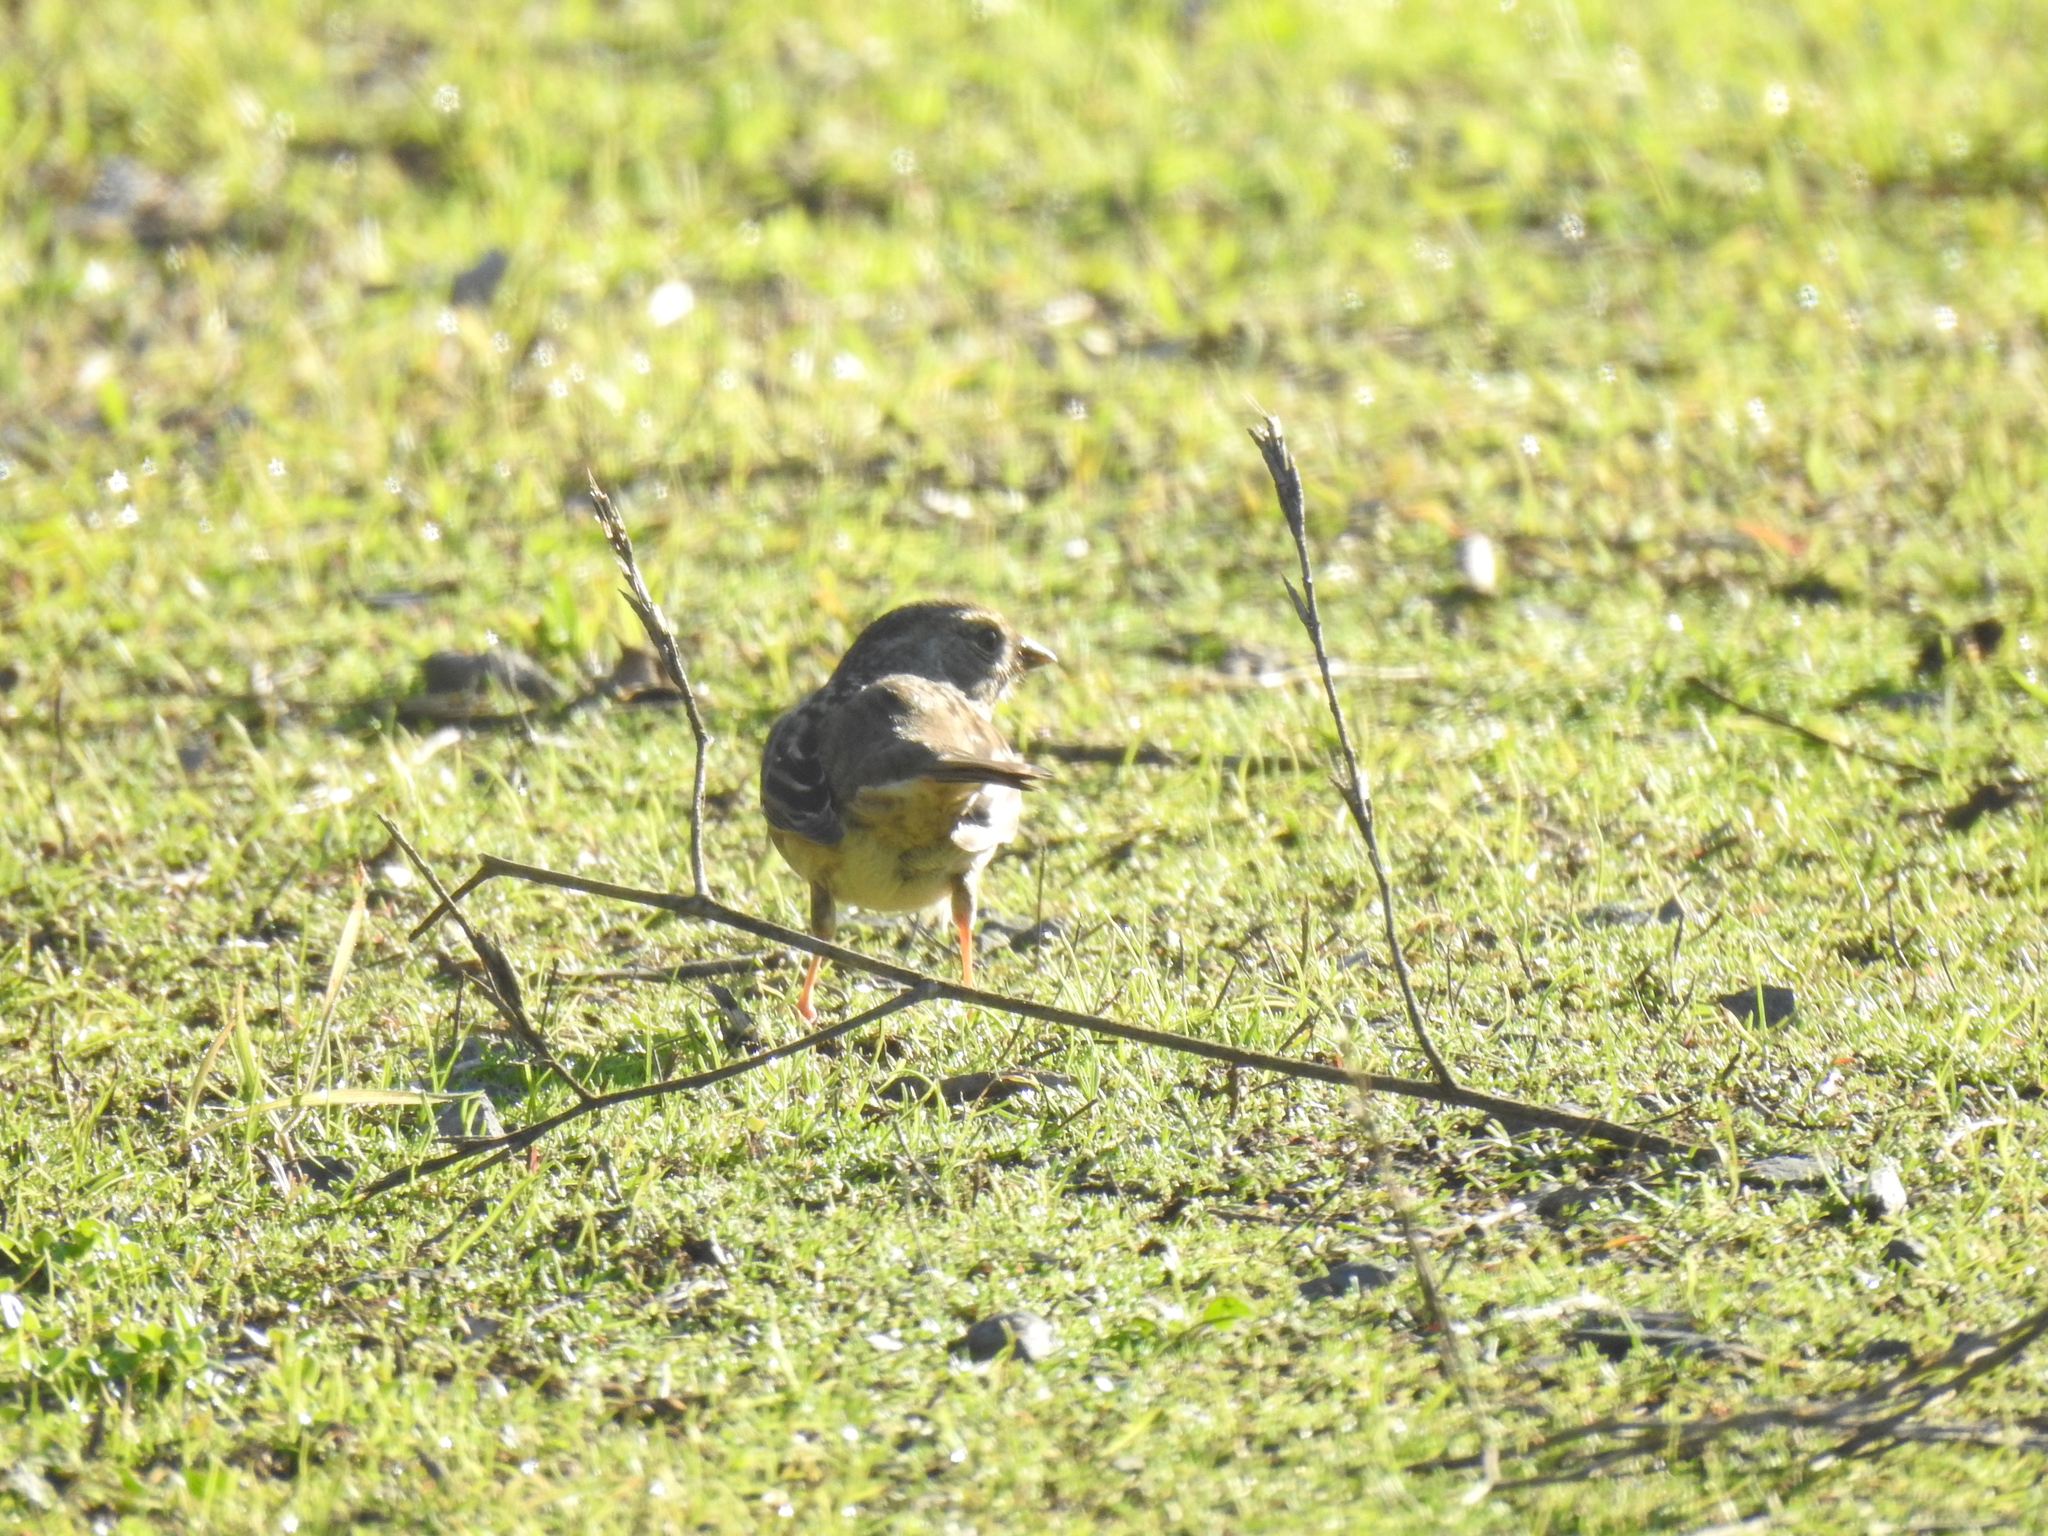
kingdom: Animalia
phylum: Chordata
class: Aves
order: Passeriformes
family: Passerellidae
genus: Zonotrichia
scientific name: Zonotrichia atricapilla
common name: Golden-crowned sparrow
